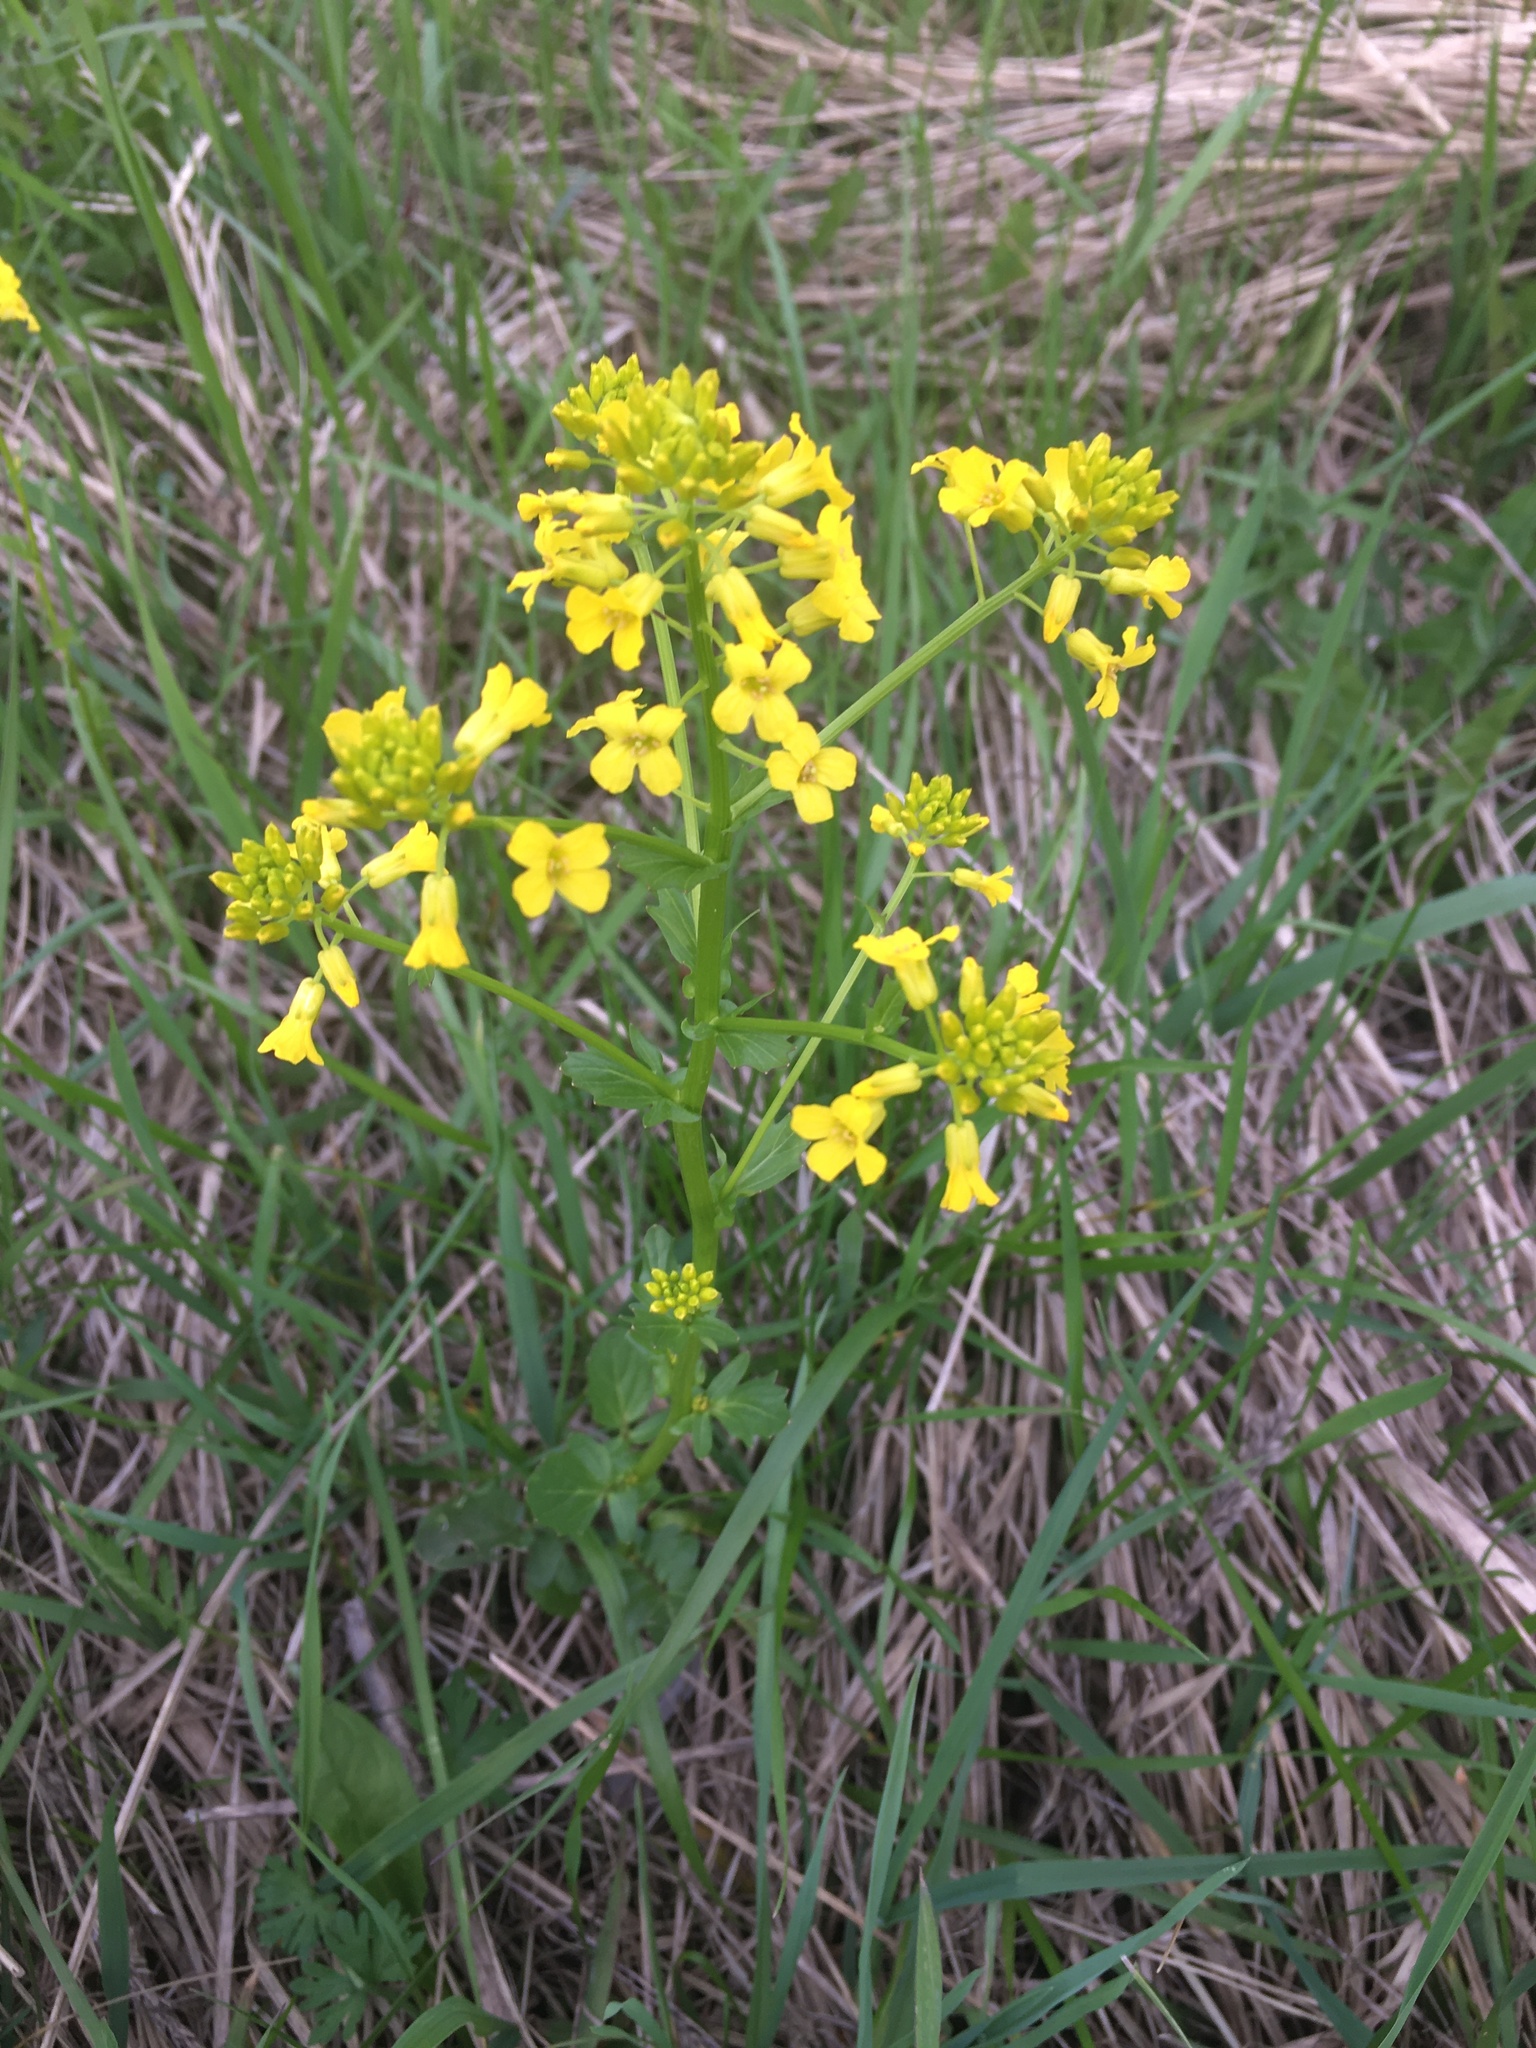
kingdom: Plantae
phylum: Tracheophyta
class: Magnoliopsida
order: Brassicales
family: Brassicaceae
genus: Barbarea
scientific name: Barbarea vulgaris
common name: Cressy-greens
